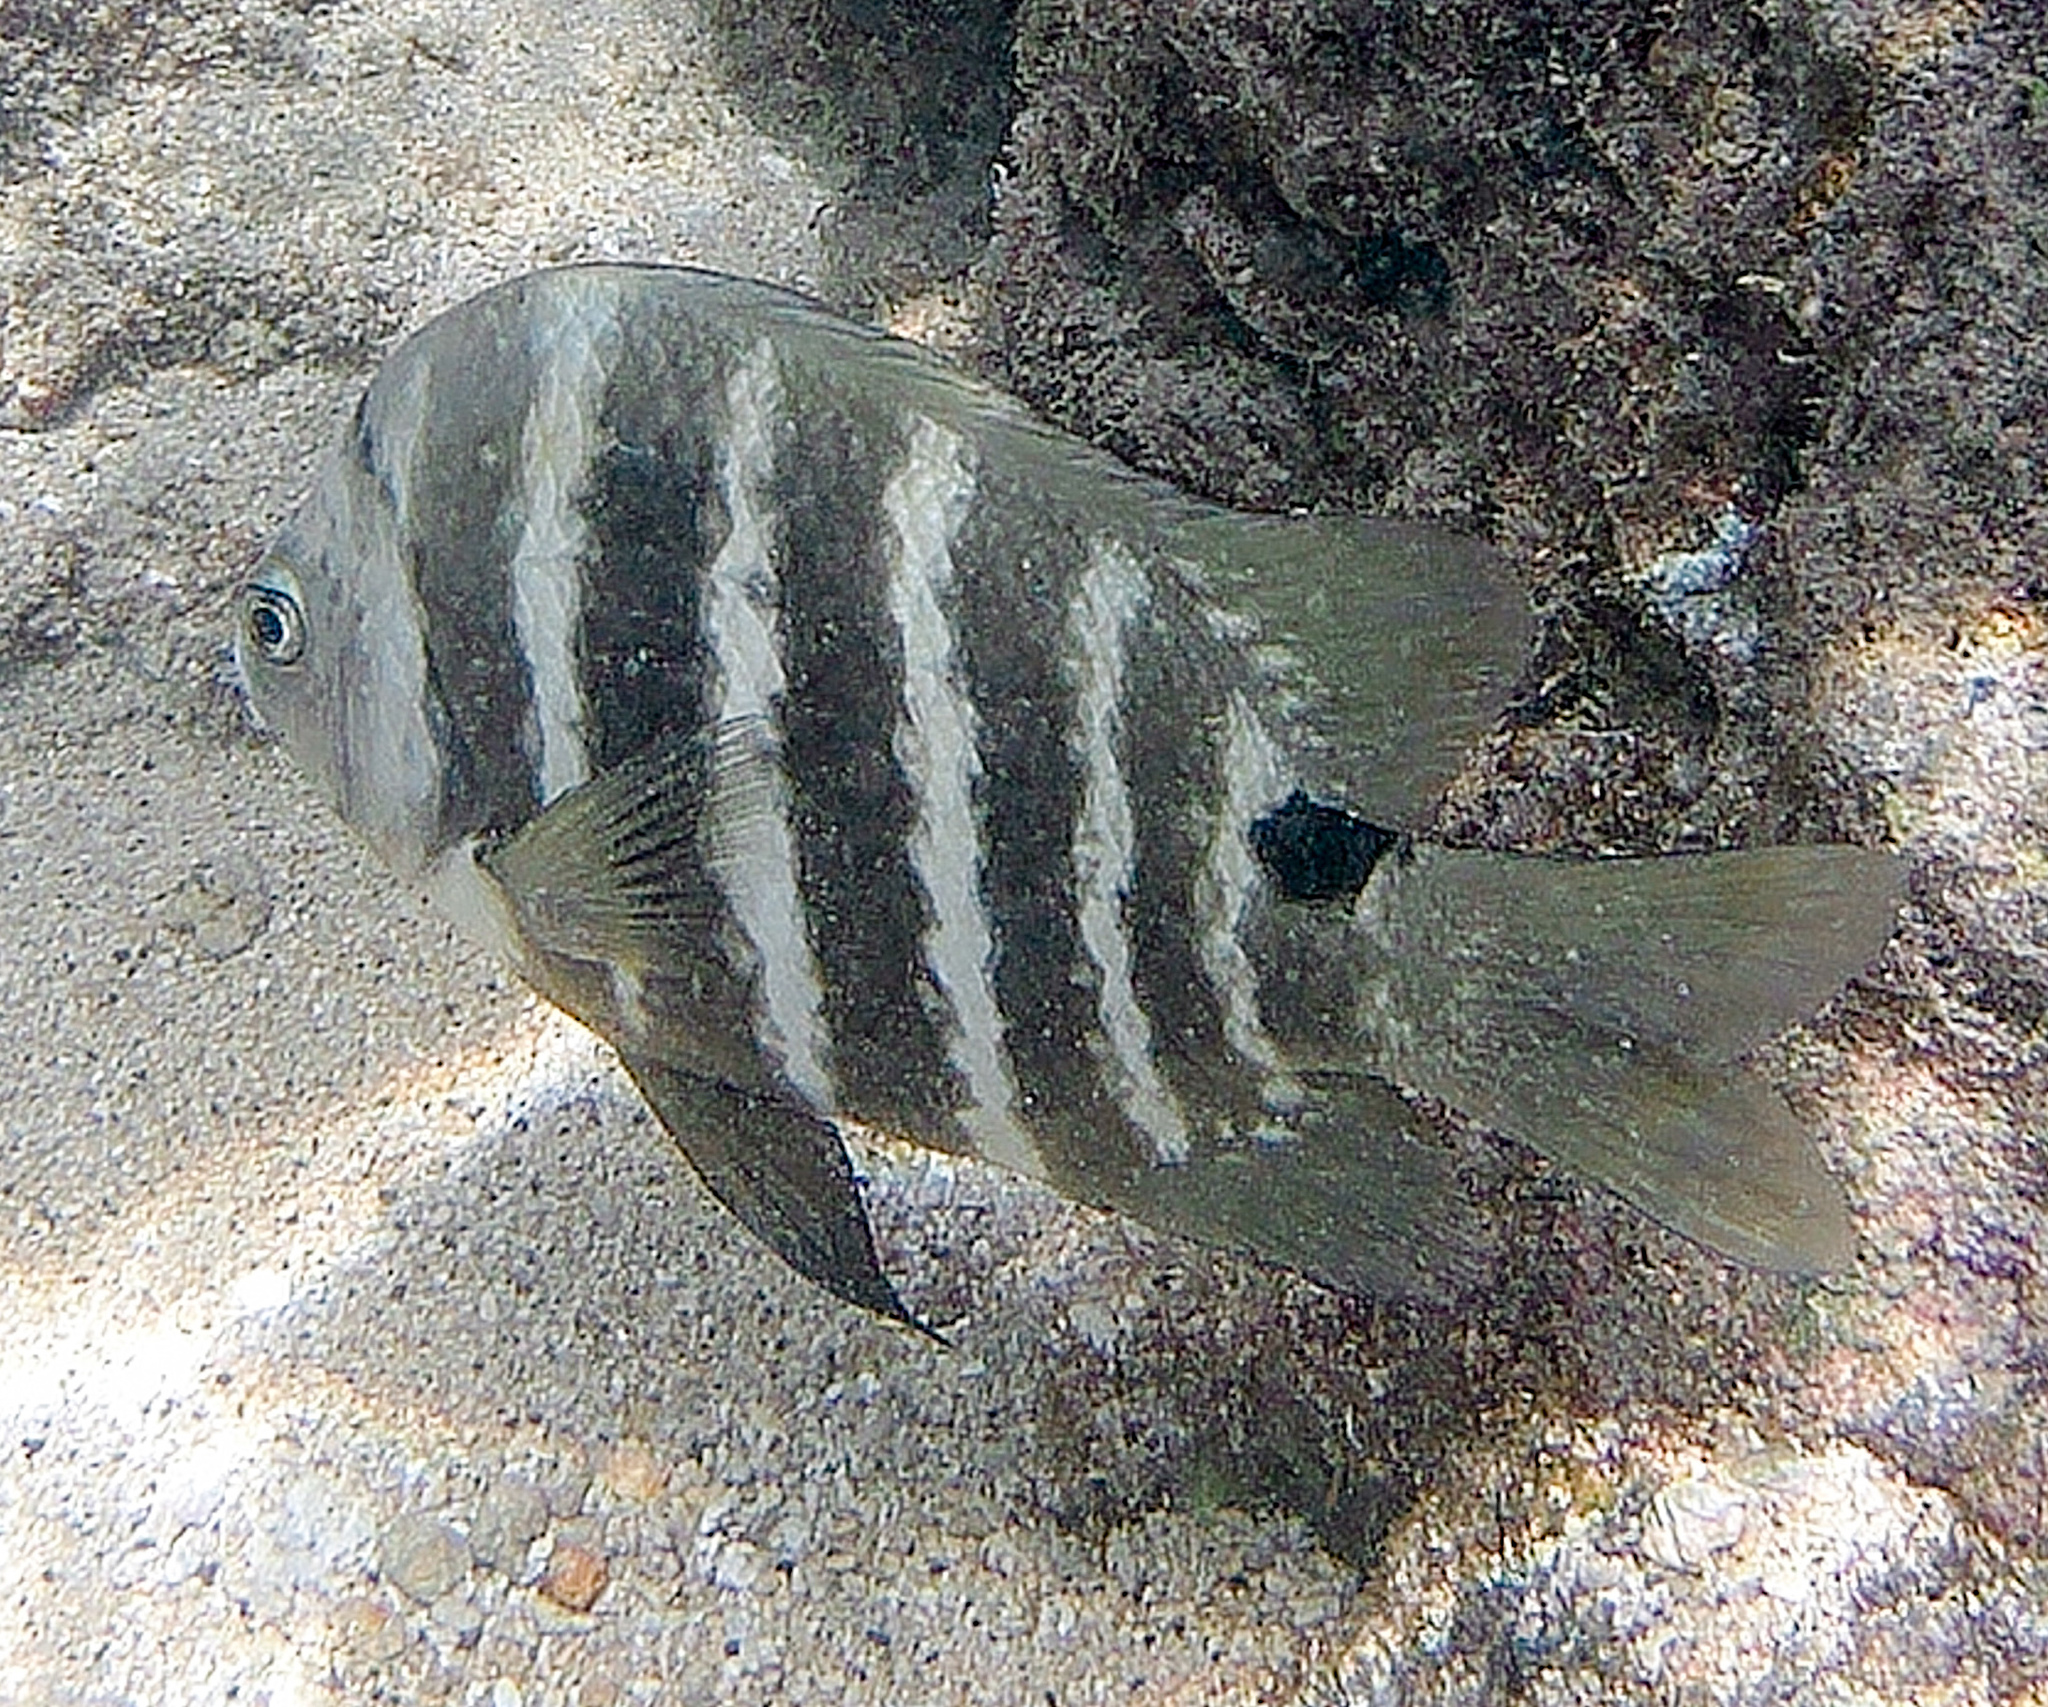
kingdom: Animalia
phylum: Chordata
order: Perciformes
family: Pomacentridae
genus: Abudefduf
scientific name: Abudefduf sordidus
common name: Blackspot sergeant
